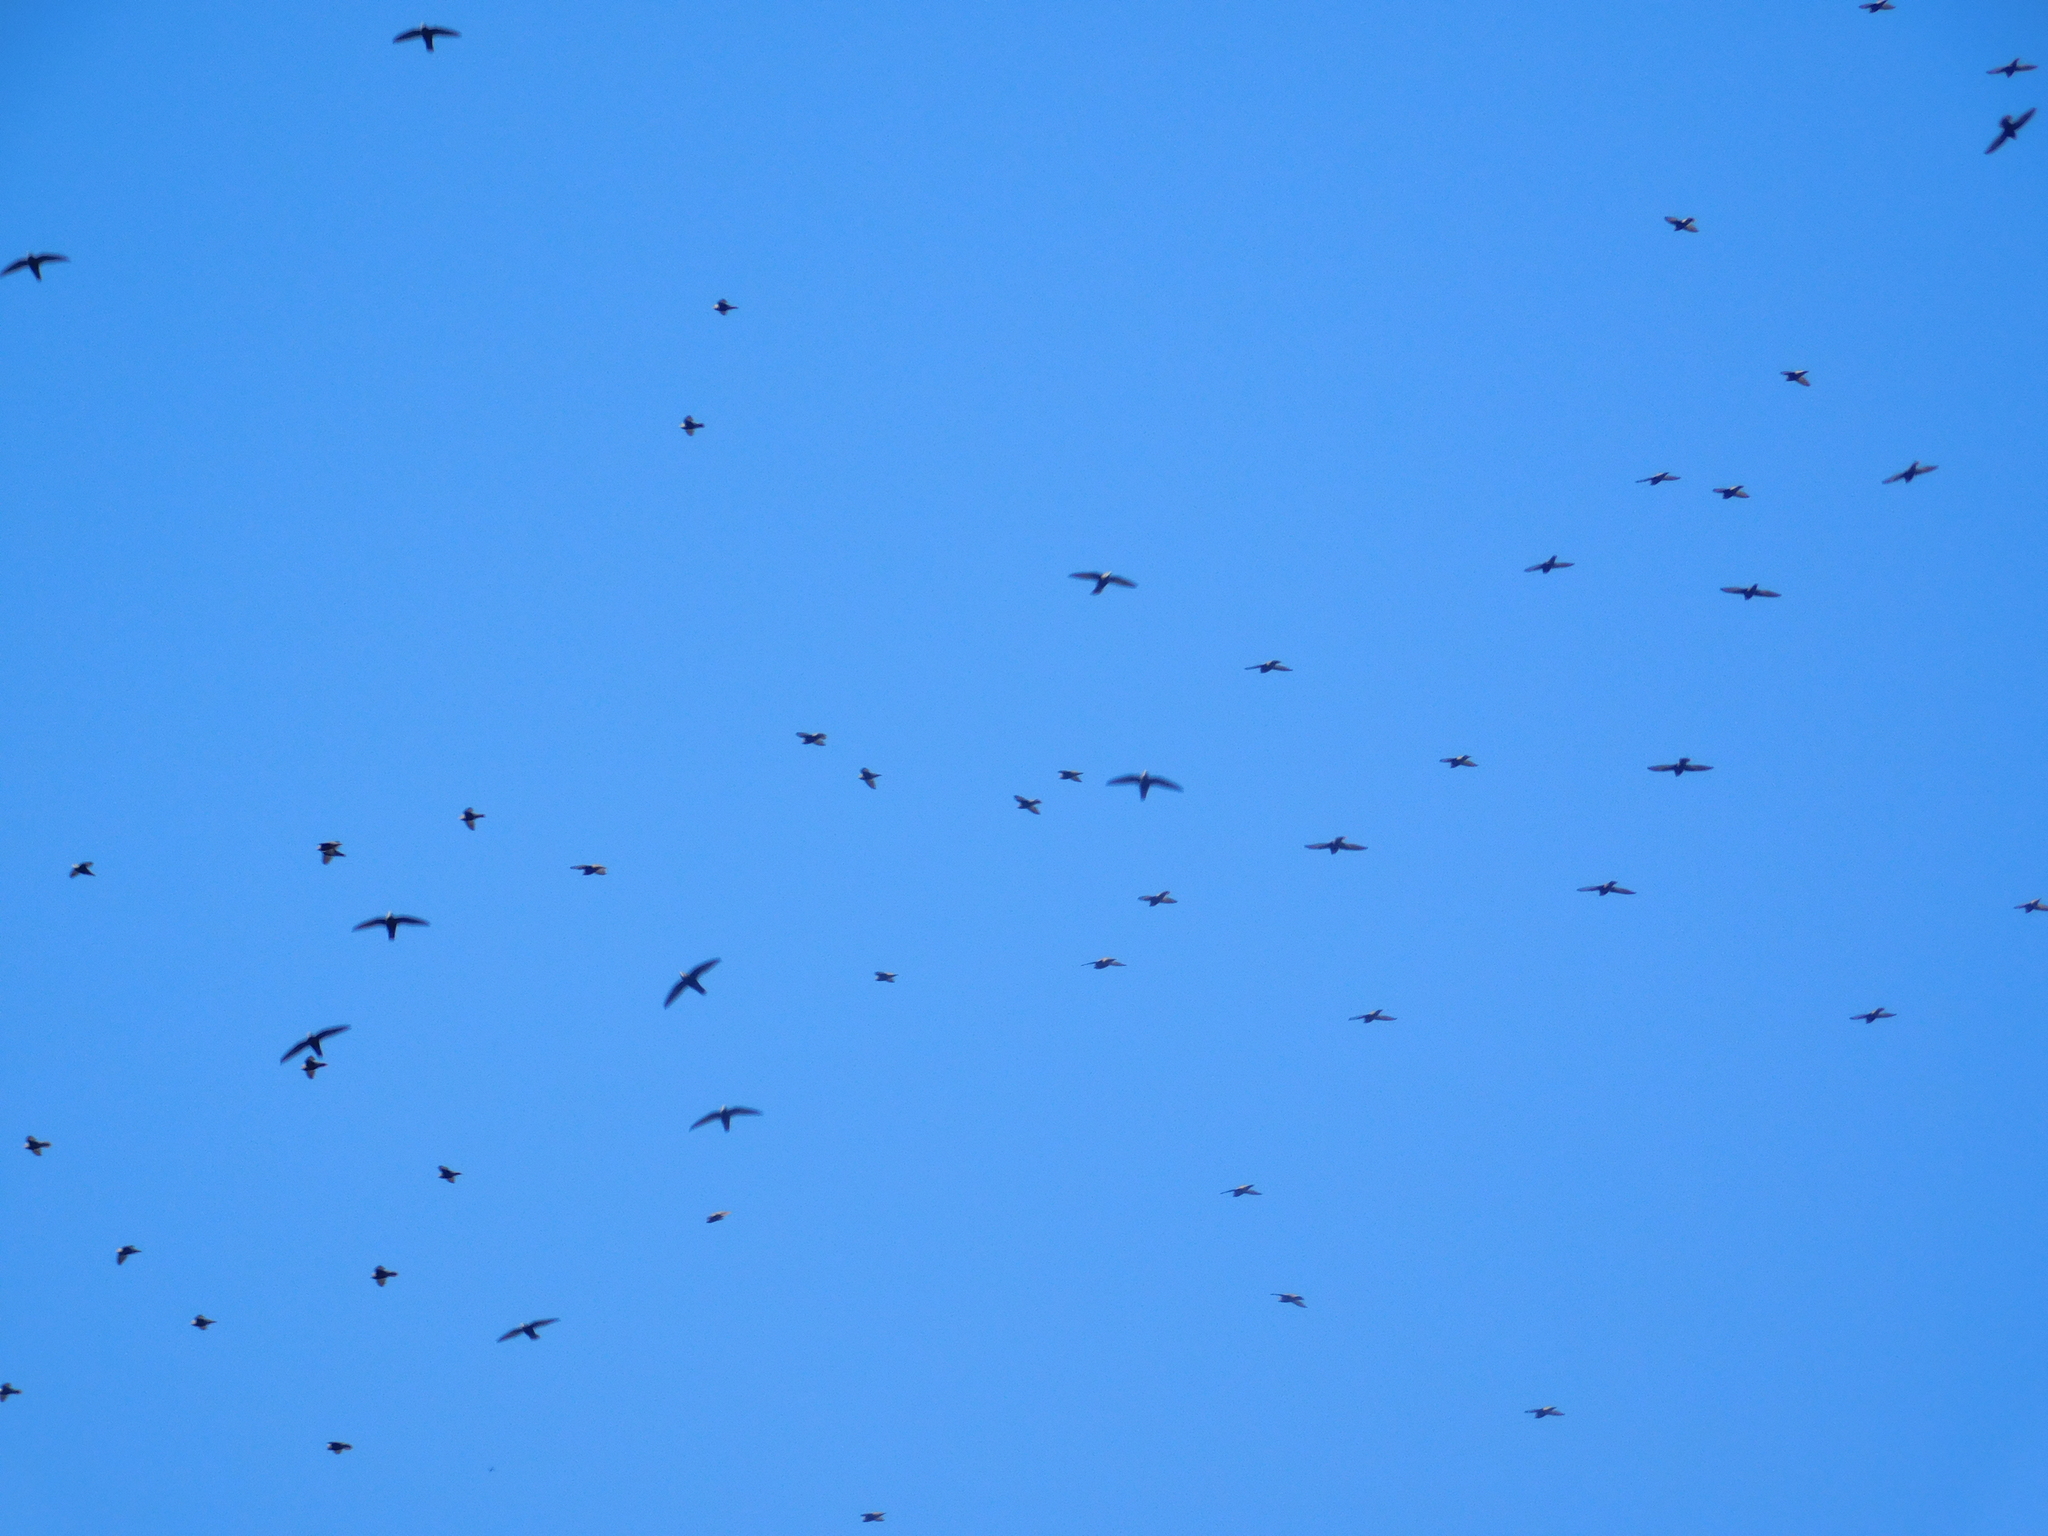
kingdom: Animalia
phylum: Chordata
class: Aves
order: Apodiformes
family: Apodidae
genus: Cypseloides
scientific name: Cypseloides senex
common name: Great dusky swift
